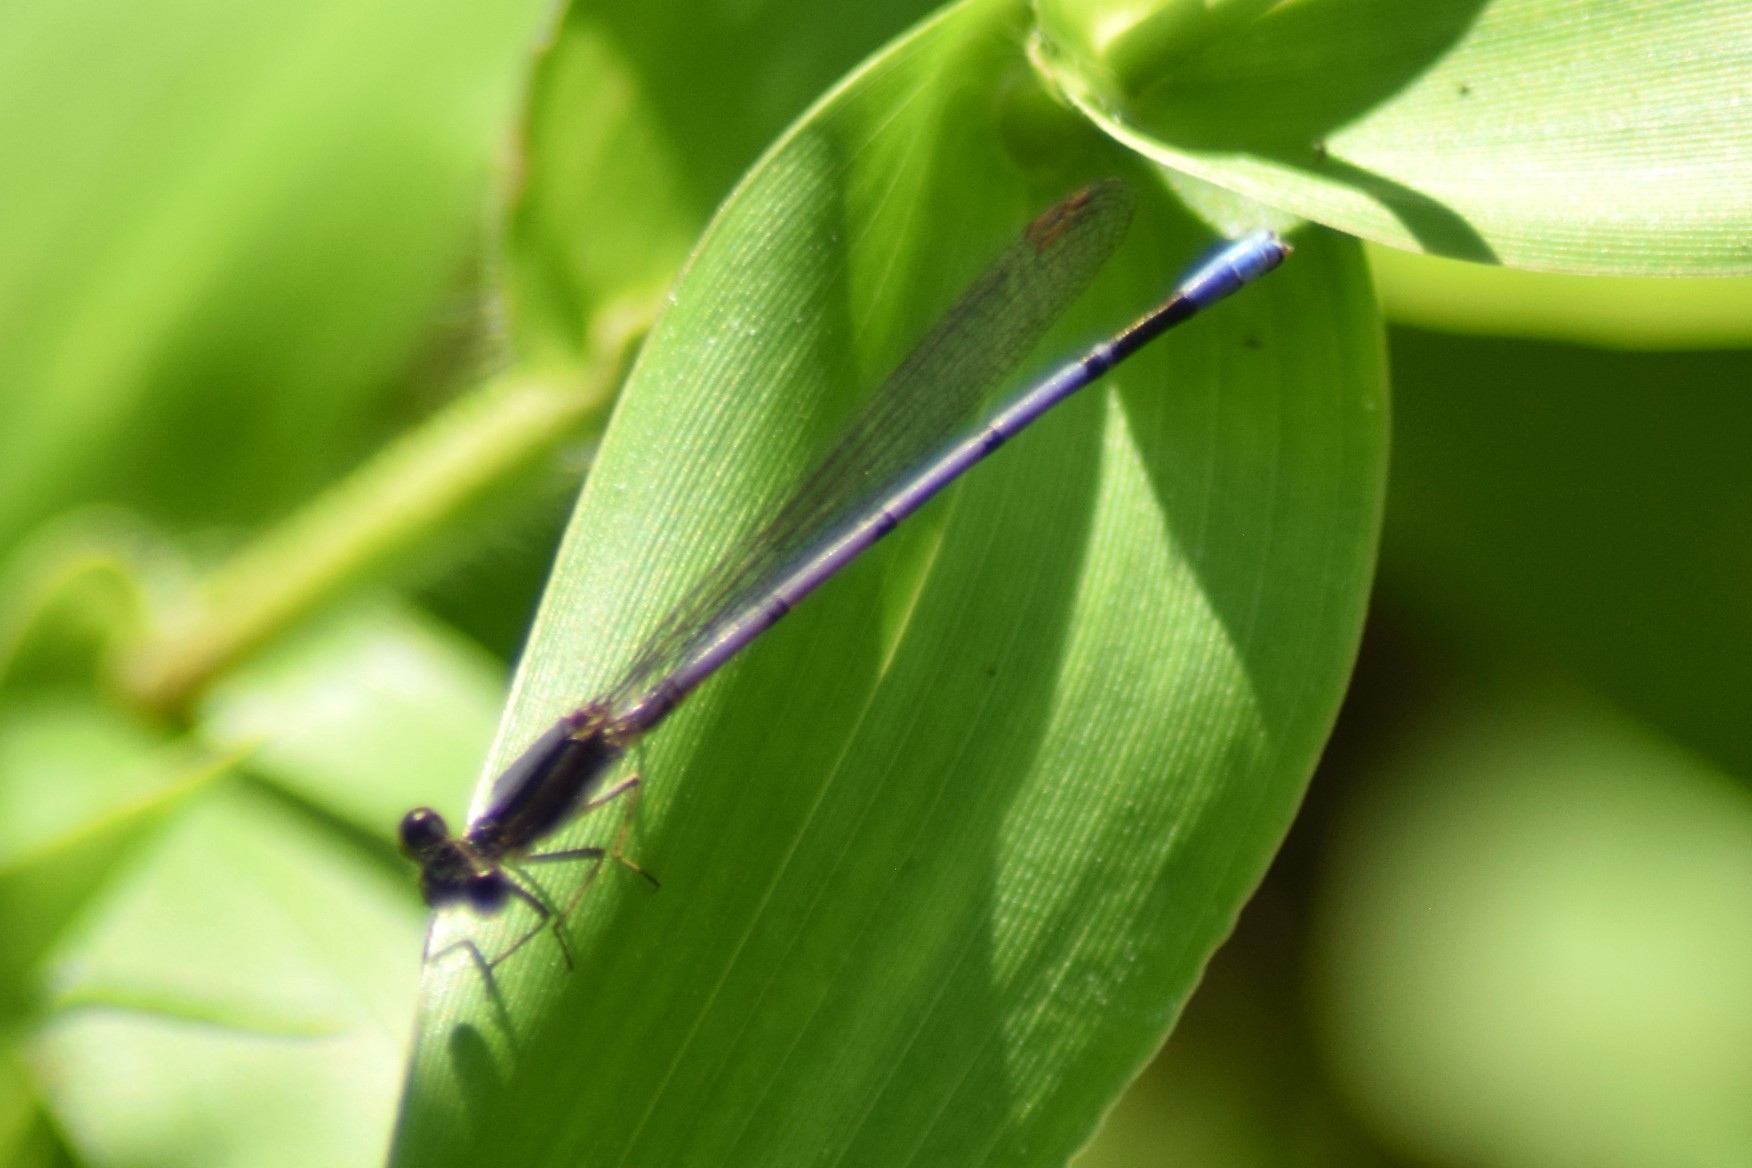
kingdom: Animalia
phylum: Arthropoda
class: Insecta
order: Odonata
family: Coenagrionidae
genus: Argia
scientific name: Argia fumipennis
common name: Variable dancer
